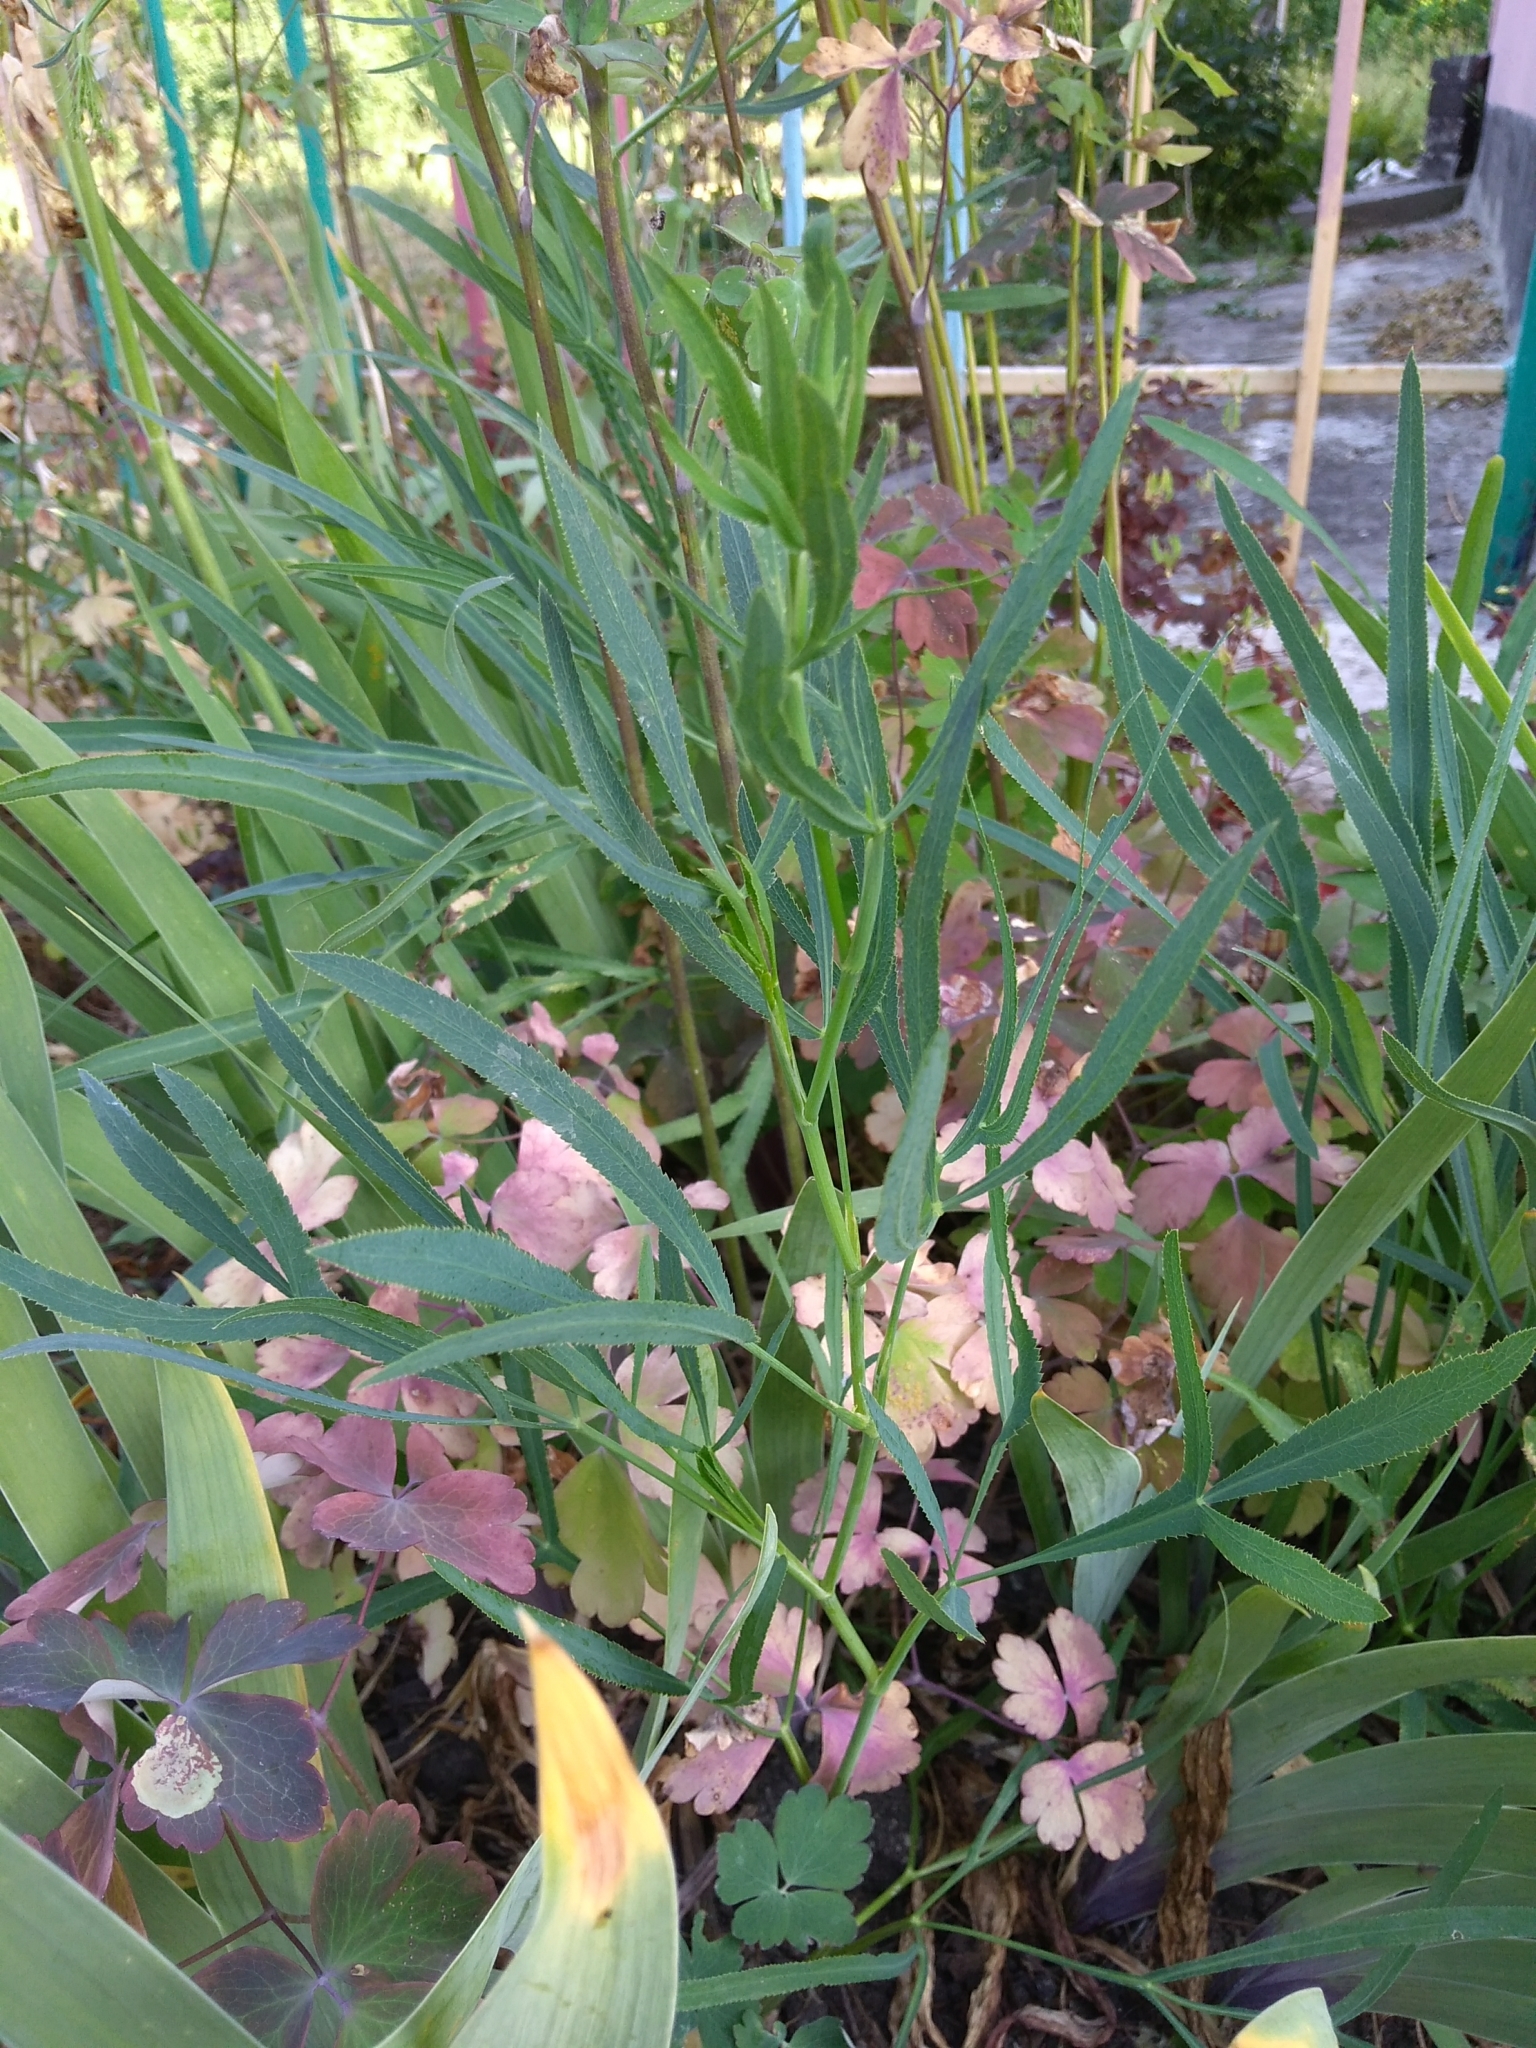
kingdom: Plantae
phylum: Tracheophyta
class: Magnoliopsida
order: Apiales
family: Apiaceae
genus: Falcaria
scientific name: Falcaria vulgaris
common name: Longleaf
